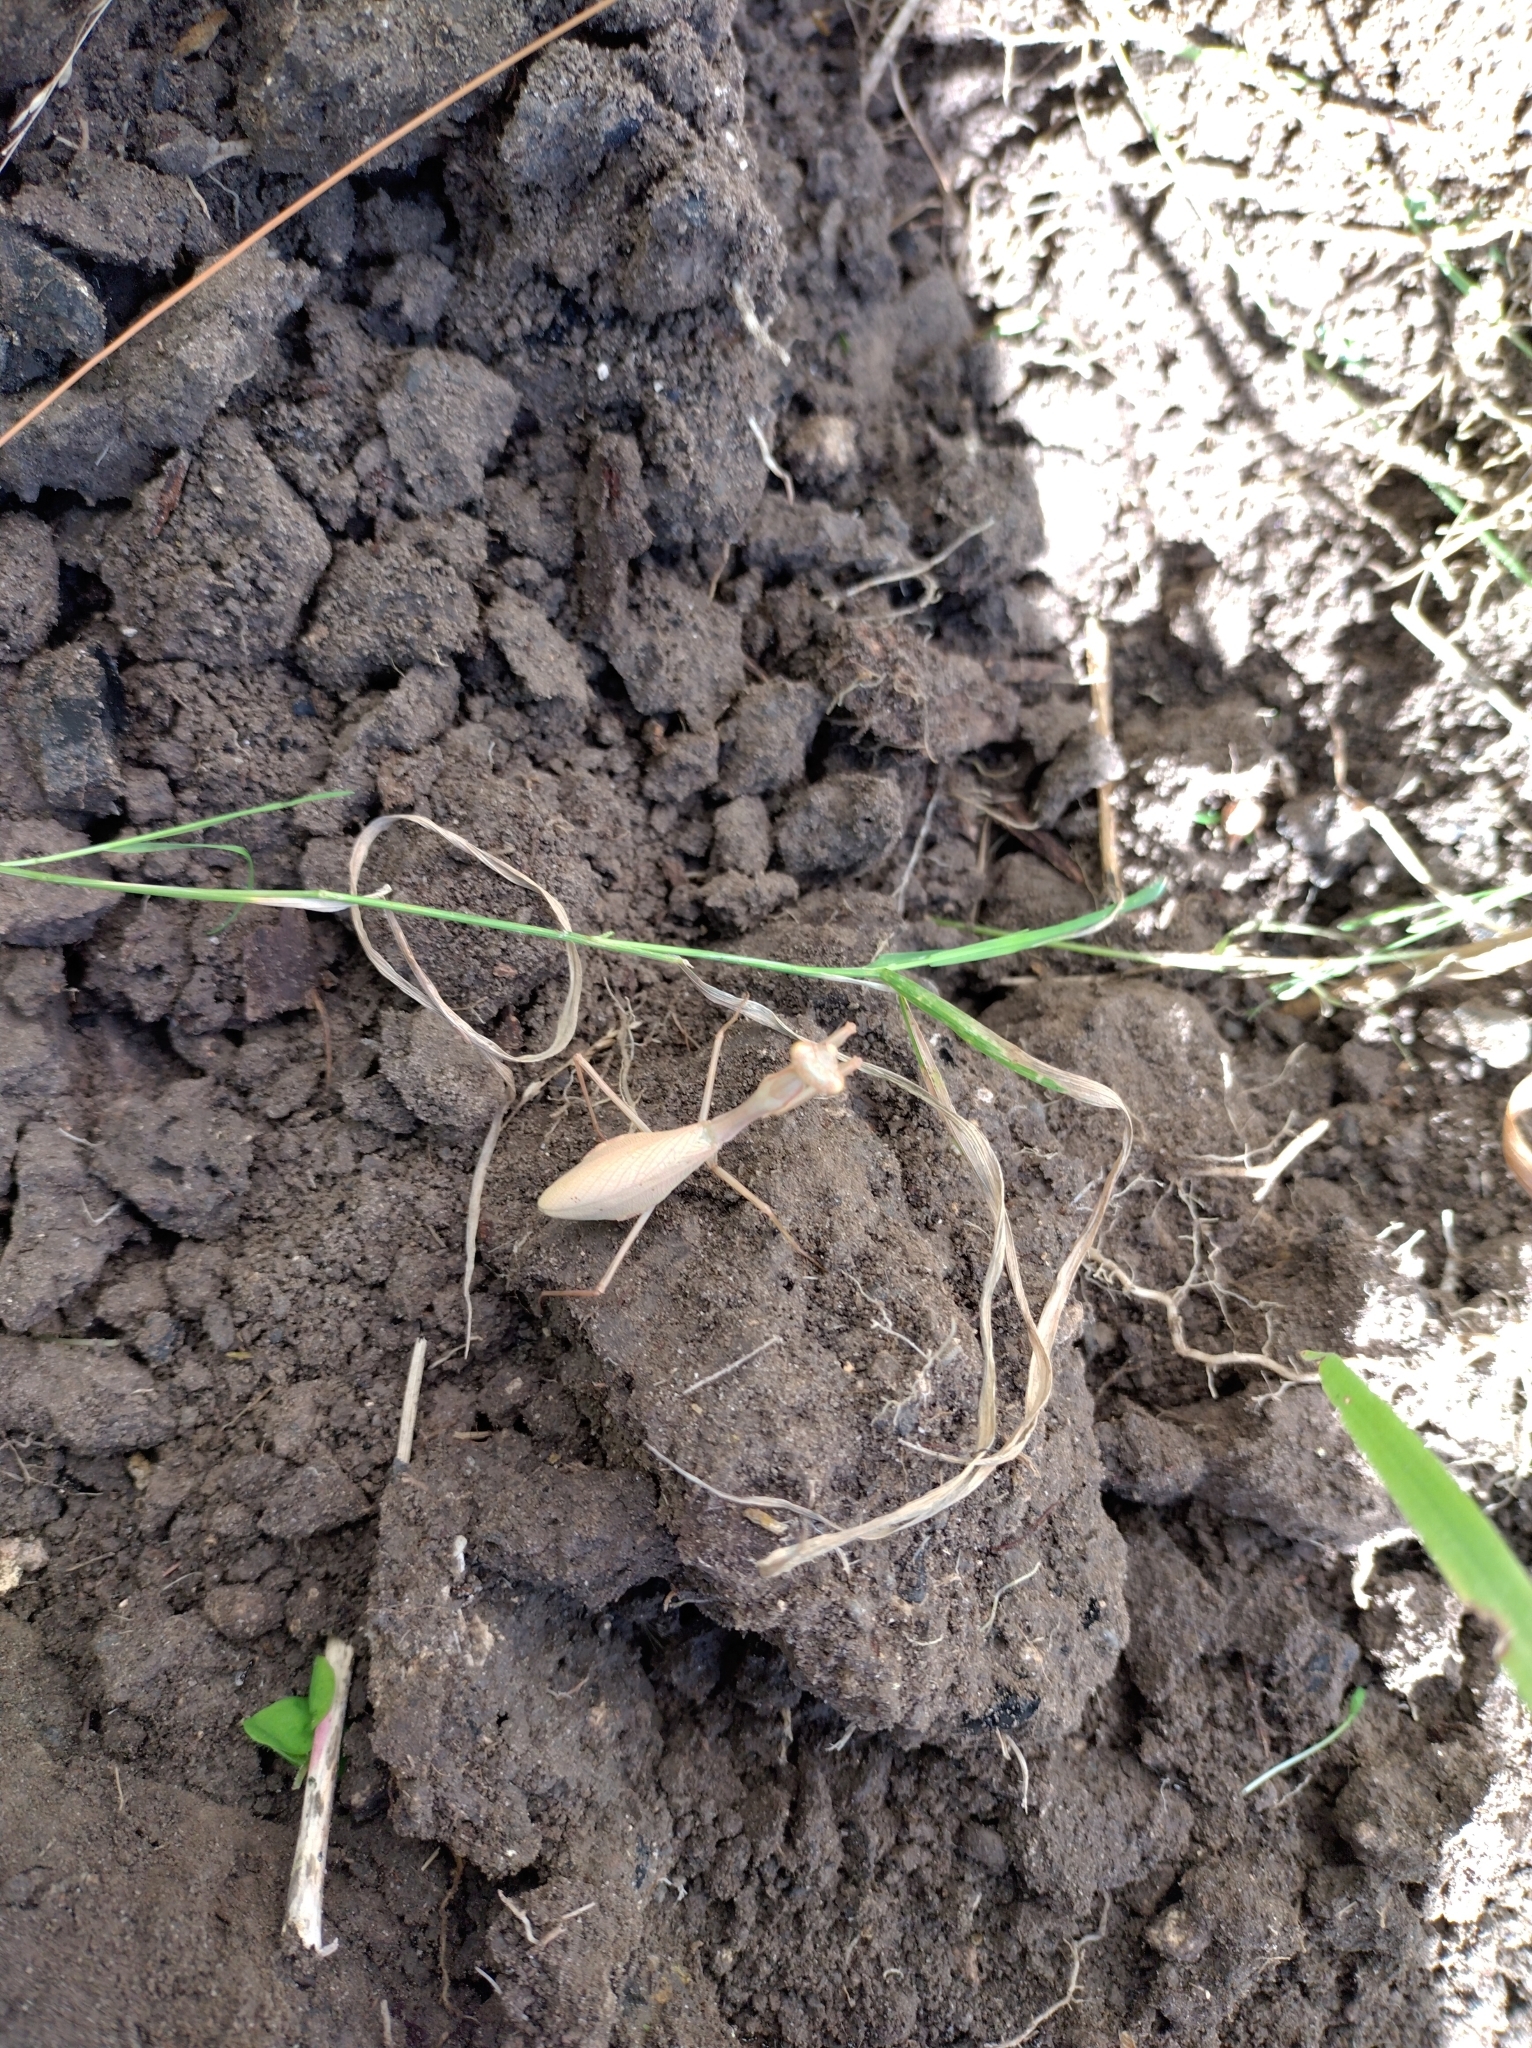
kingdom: Animalia
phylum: Arthropoda
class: Insecta
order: Mantodea
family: Miomantidae
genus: Miomantis
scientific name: Miomantis caffra
